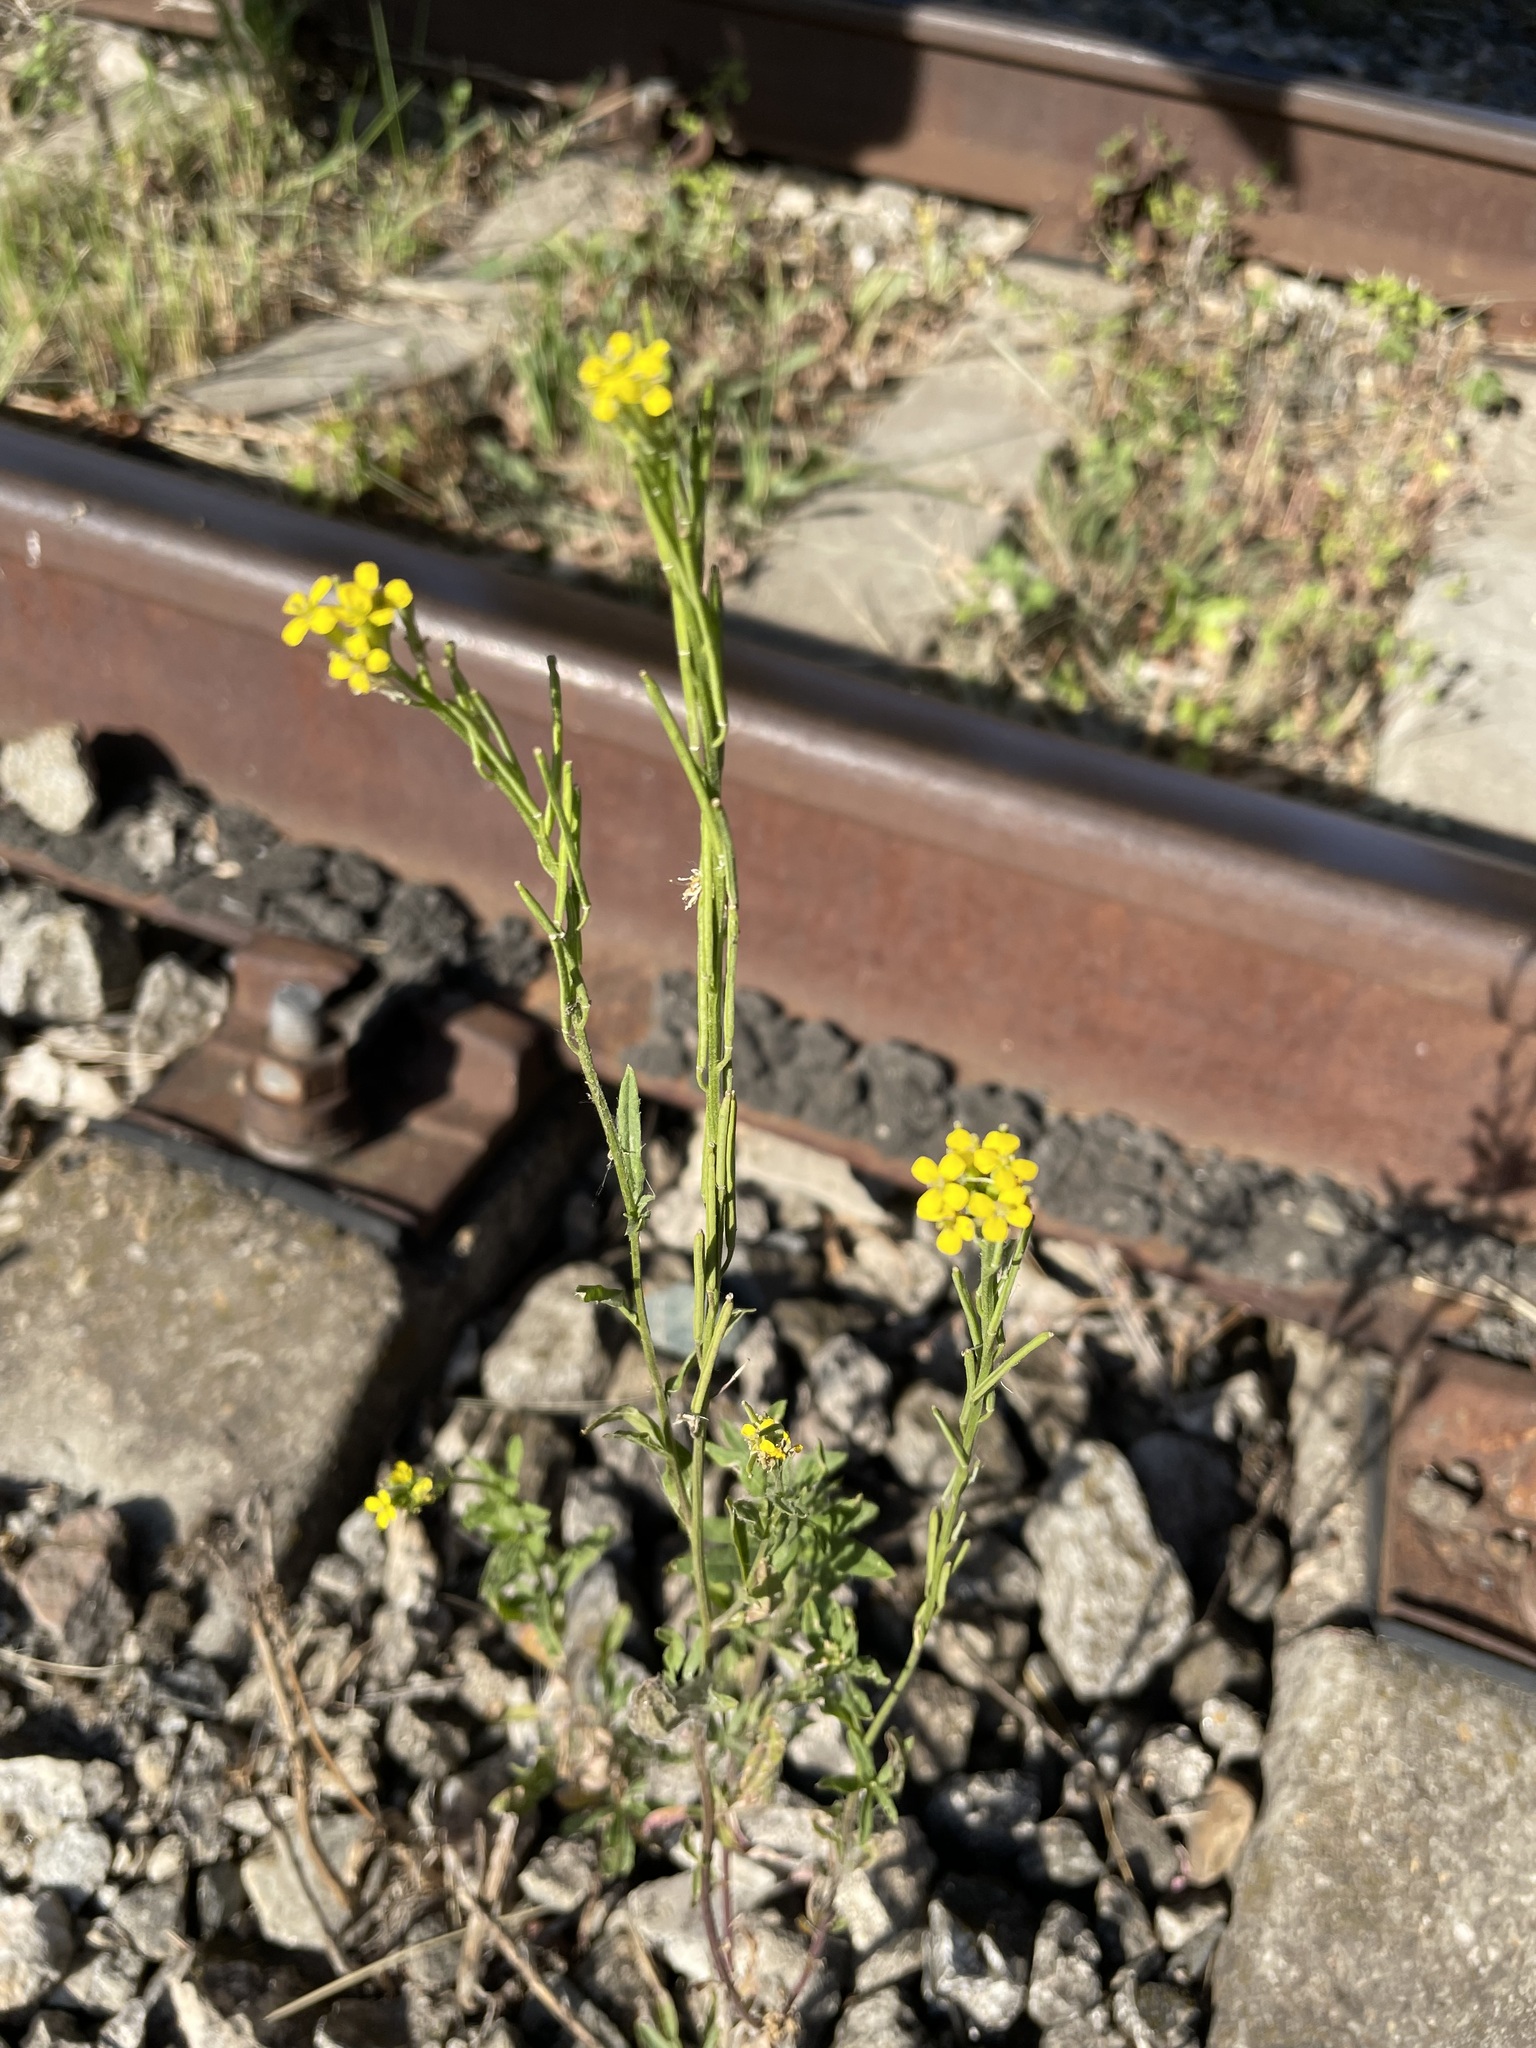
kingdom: Plantae
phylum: Tracheophyta
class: Magnoliopsida
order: Brassicales
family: Brassicaceae
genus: Erysimum
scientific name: Erysimum hieraciifolium
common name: European wallflower
